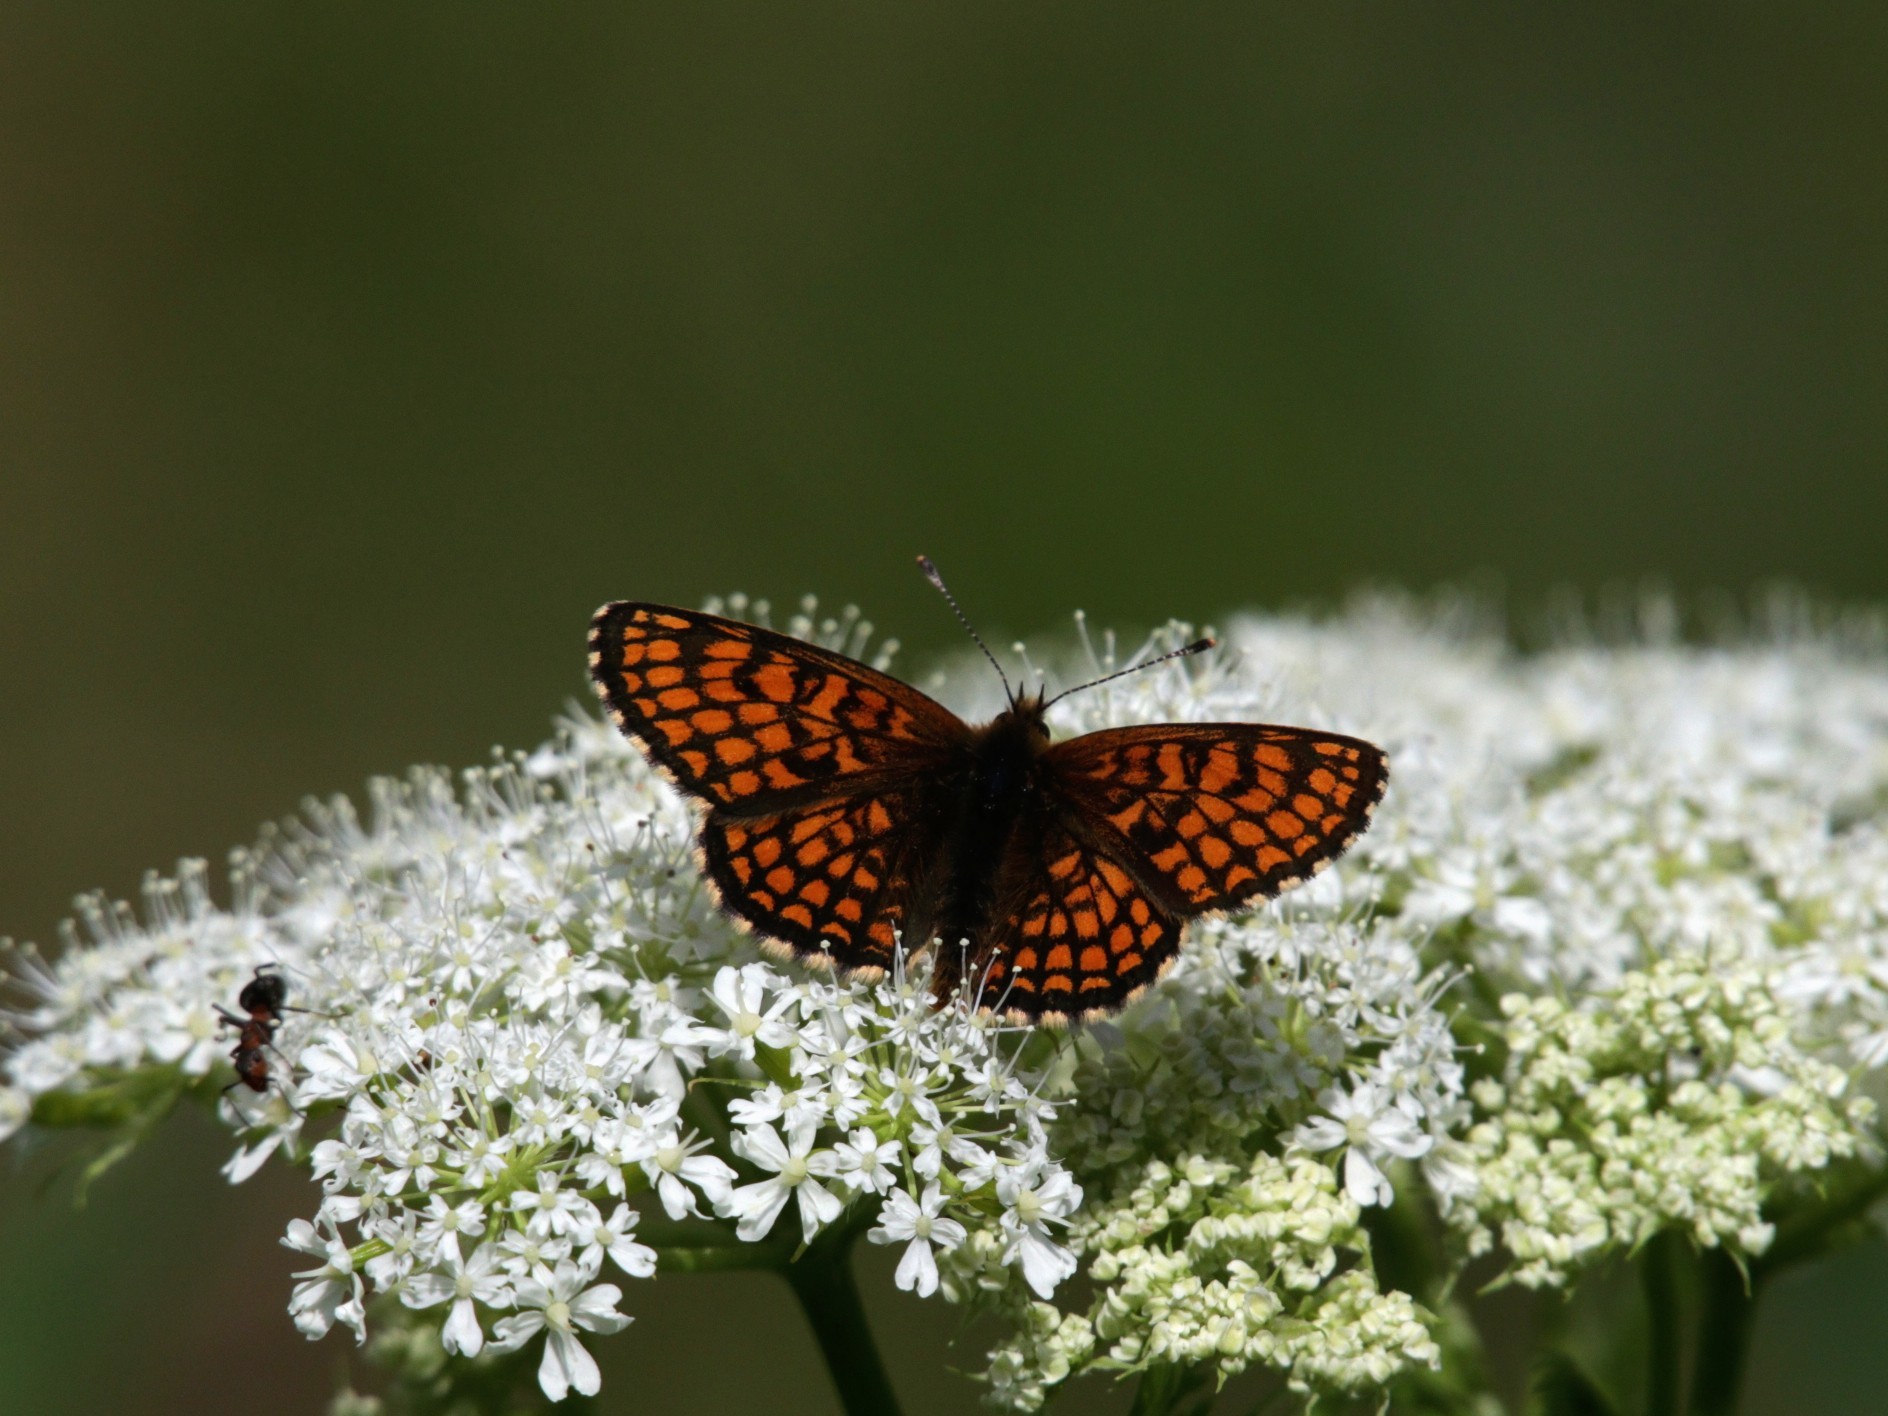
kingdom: Animalia
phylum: Arthropoda
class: Insecta
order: Lepidoptera
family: Nymphalidae
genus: Melitaea
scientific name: Melitaea athalia
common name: Heath fritillary
